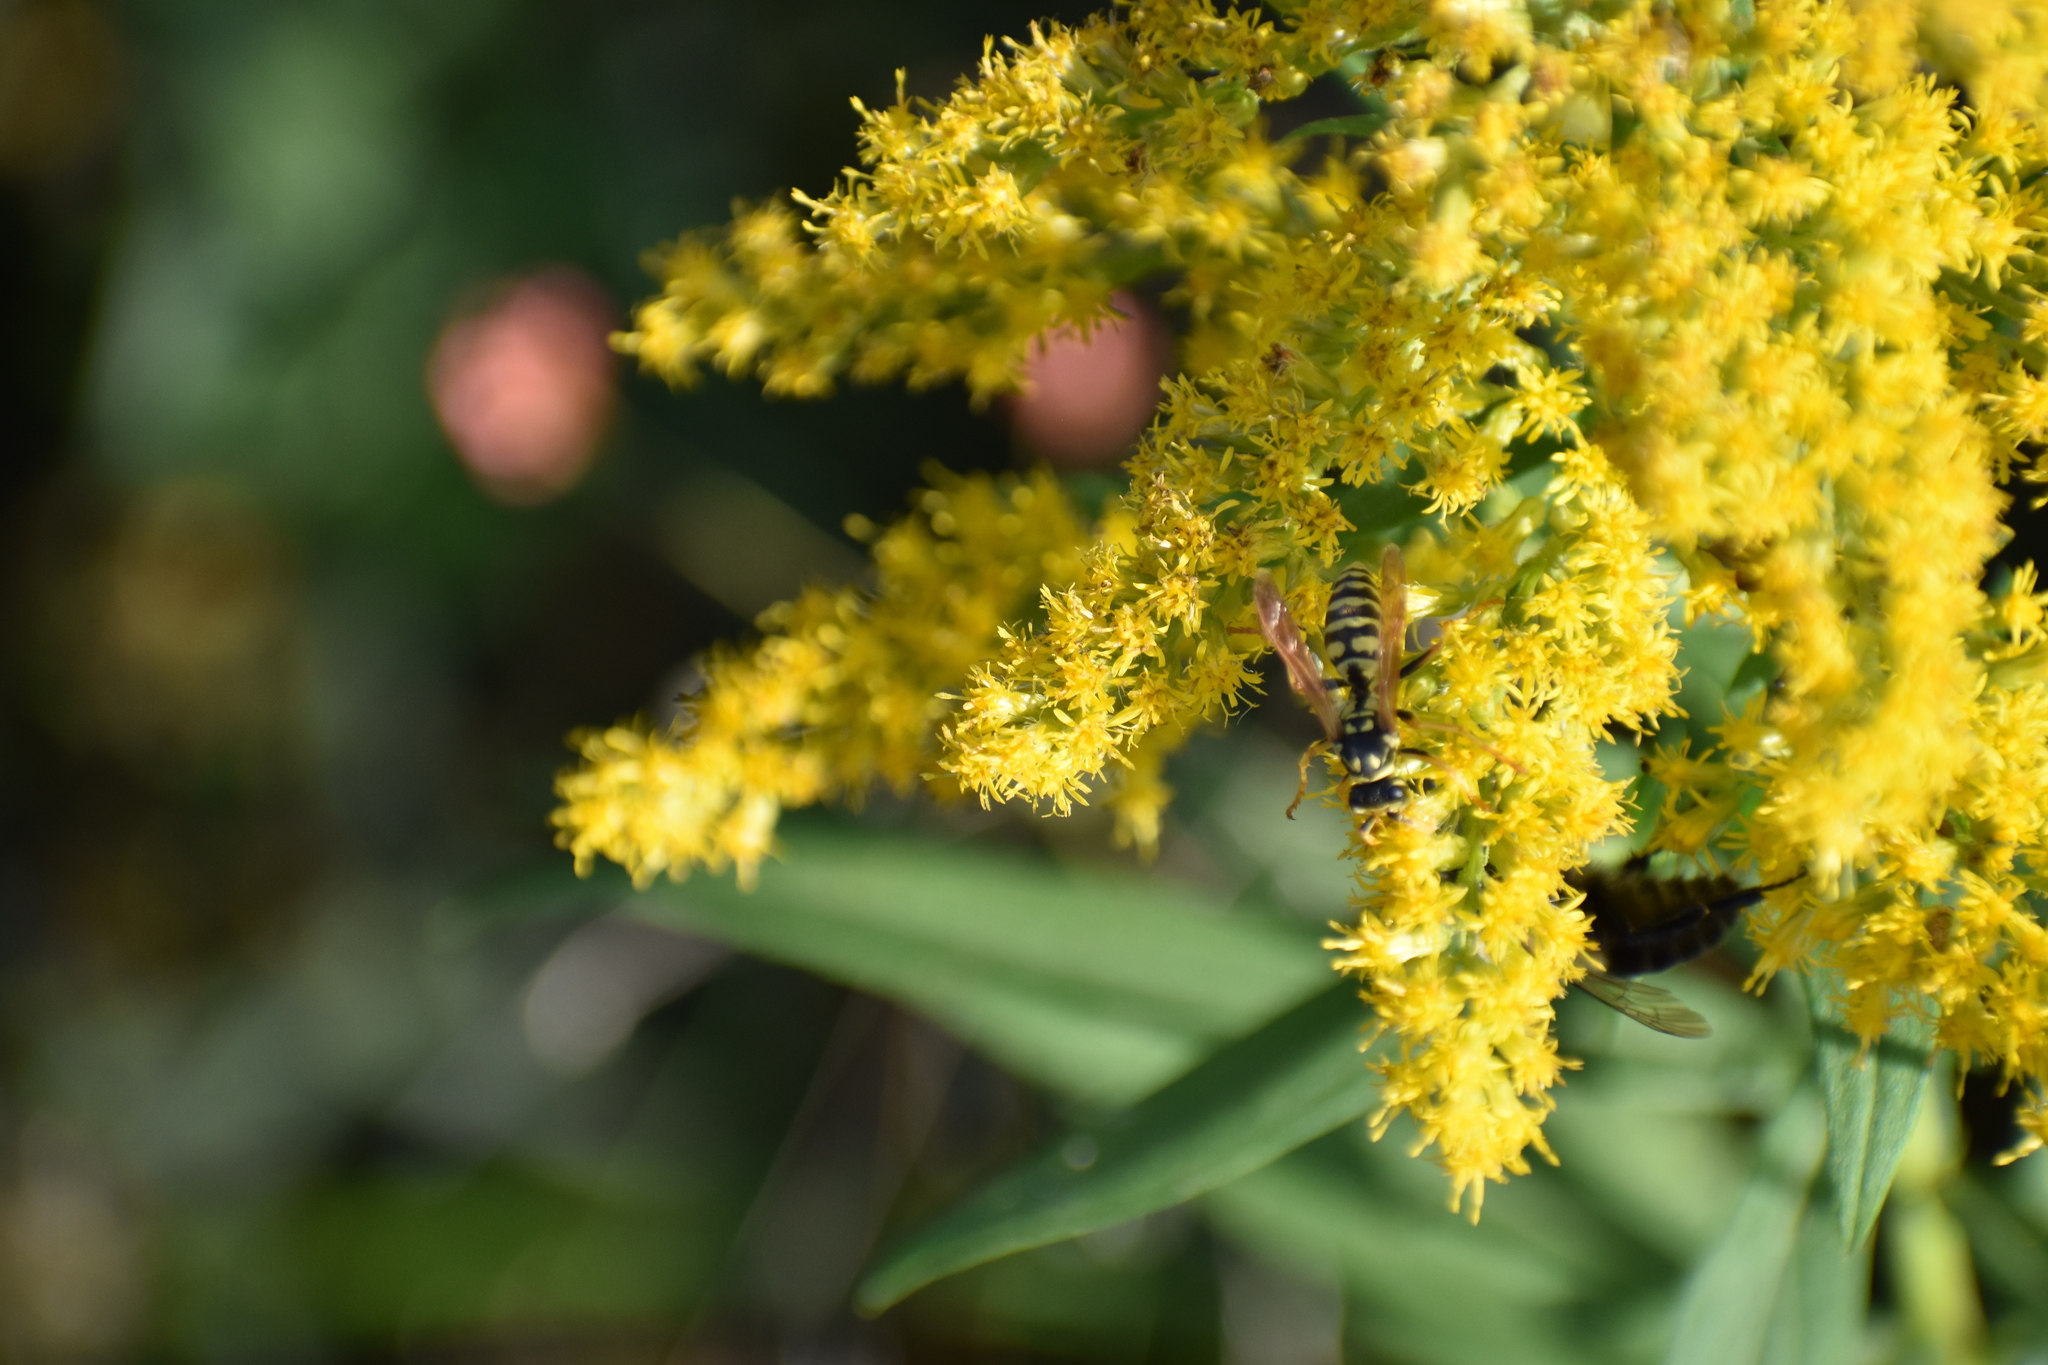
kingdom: Animalia
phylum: Arthropoda
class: Insecta
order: Hymenoptera
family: Eumenidae
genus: Polistes
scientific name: Polistes dominula
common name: Paper wasp
